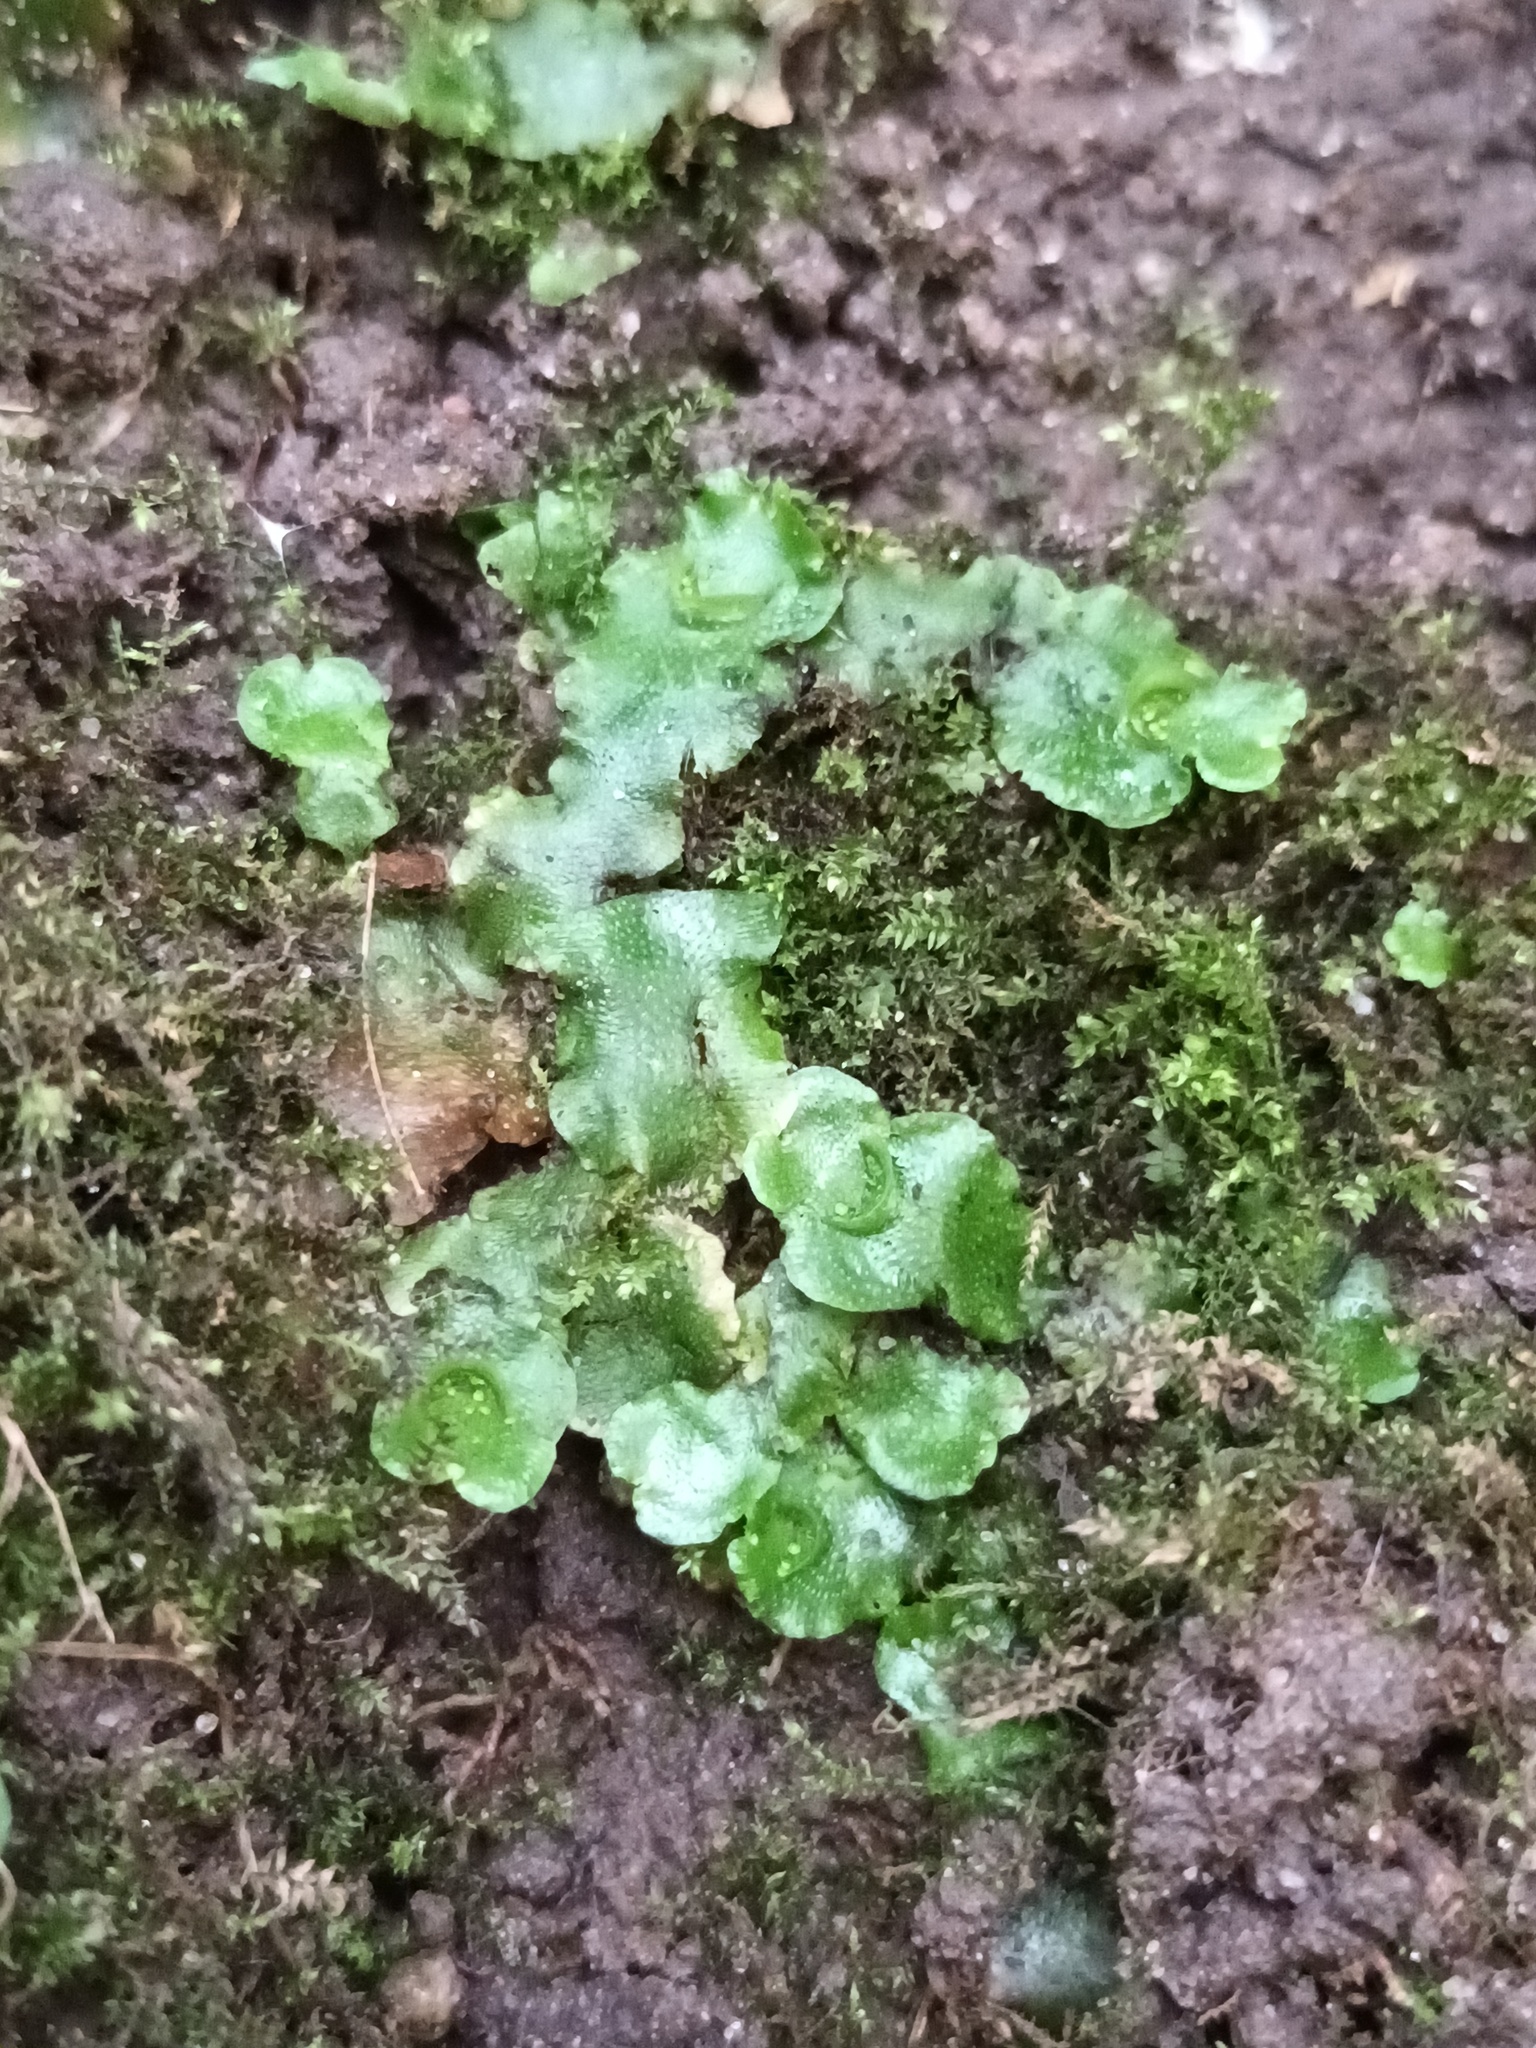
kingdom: Plantae
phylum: Marchantiophyta
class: Marchantiopsida
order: Lunulariales
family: Lunulariaceae
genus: Lunularia
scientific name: Lunularia cruciata
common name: Crescent-cup liverwort
